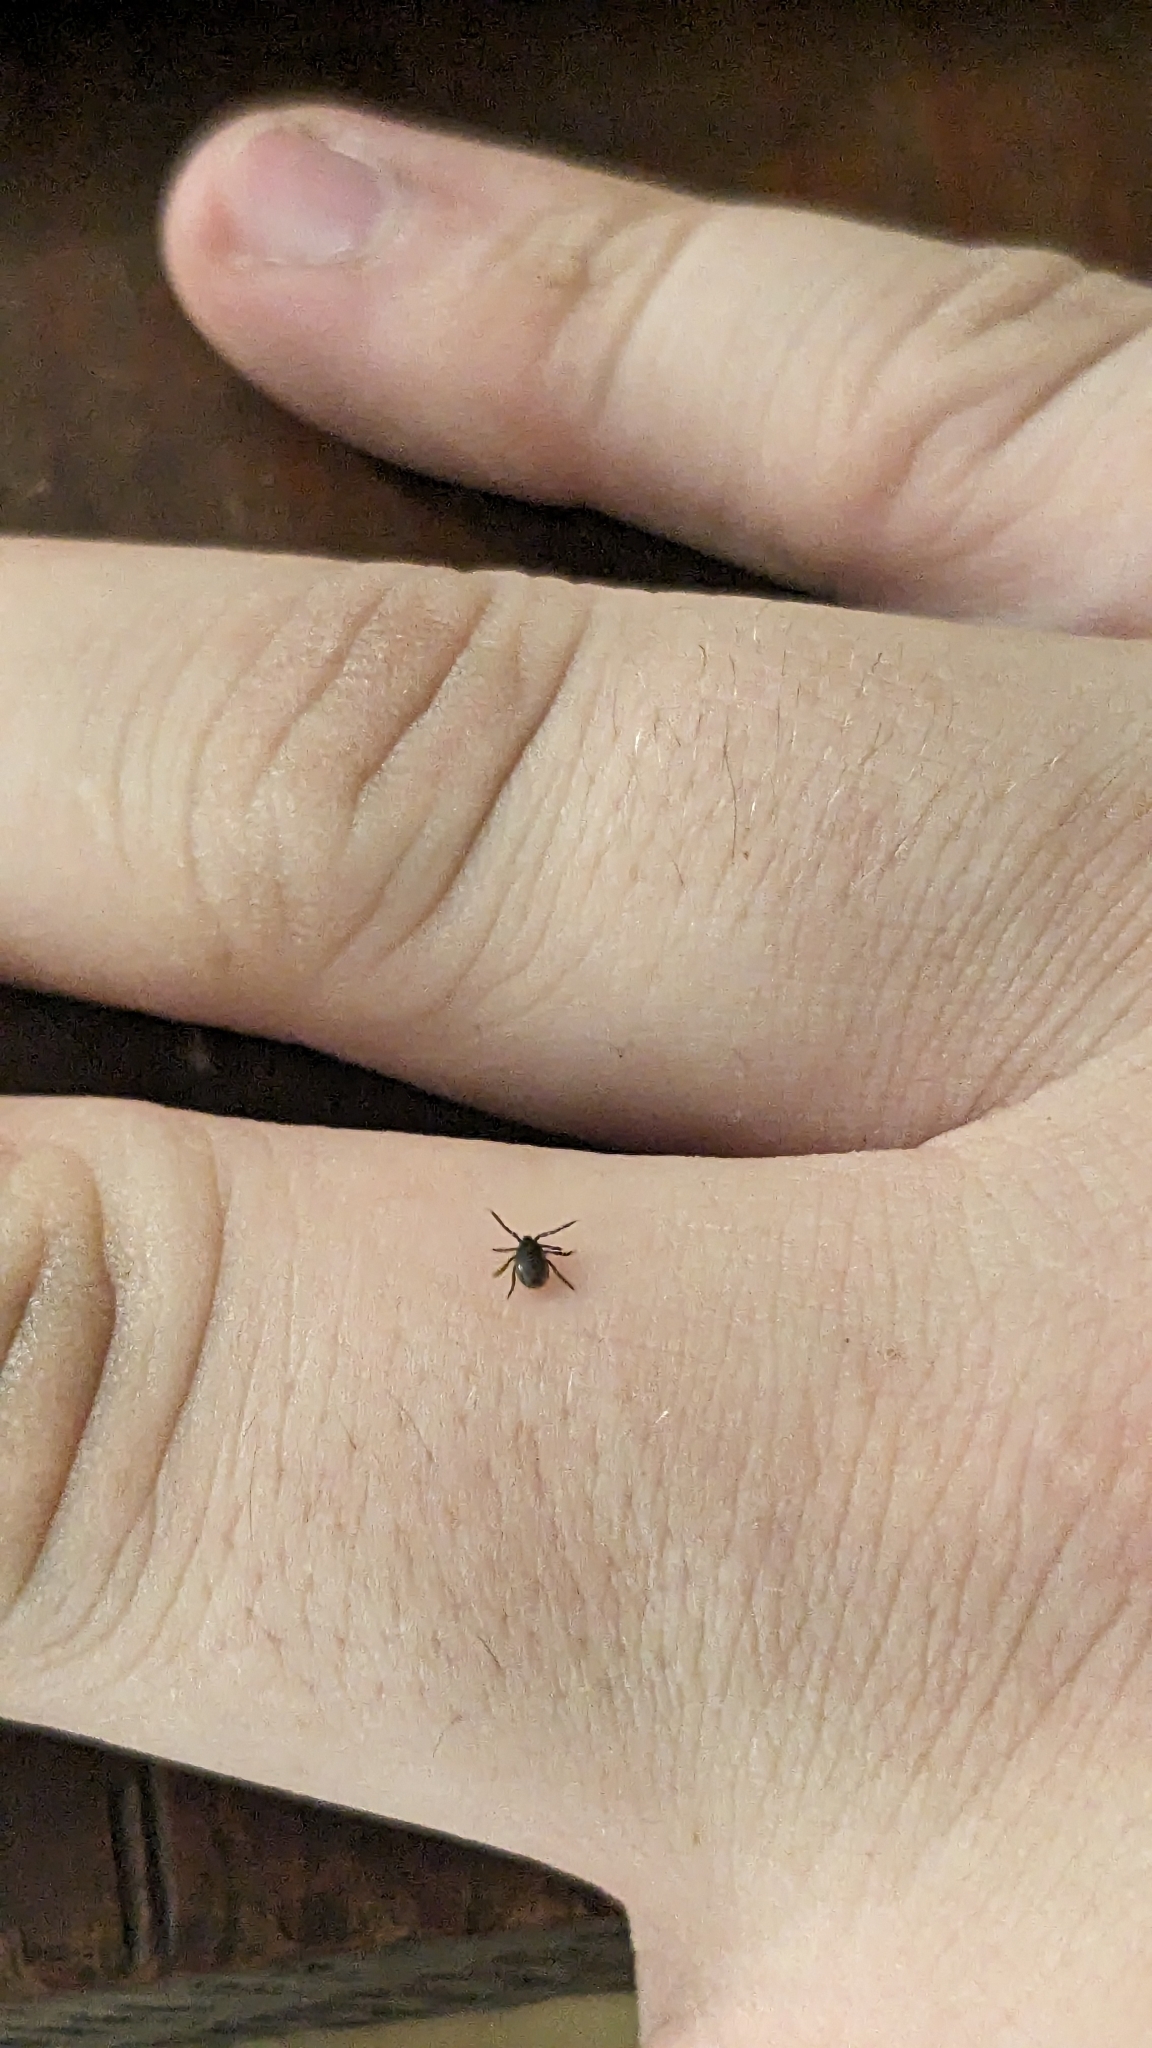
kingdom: Animalia
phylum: Arthropoda
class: Arachnida
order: Ixodida
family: Ixodidae
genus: Ixodes
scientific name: Ixodes scapularis
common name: Black legged tick
